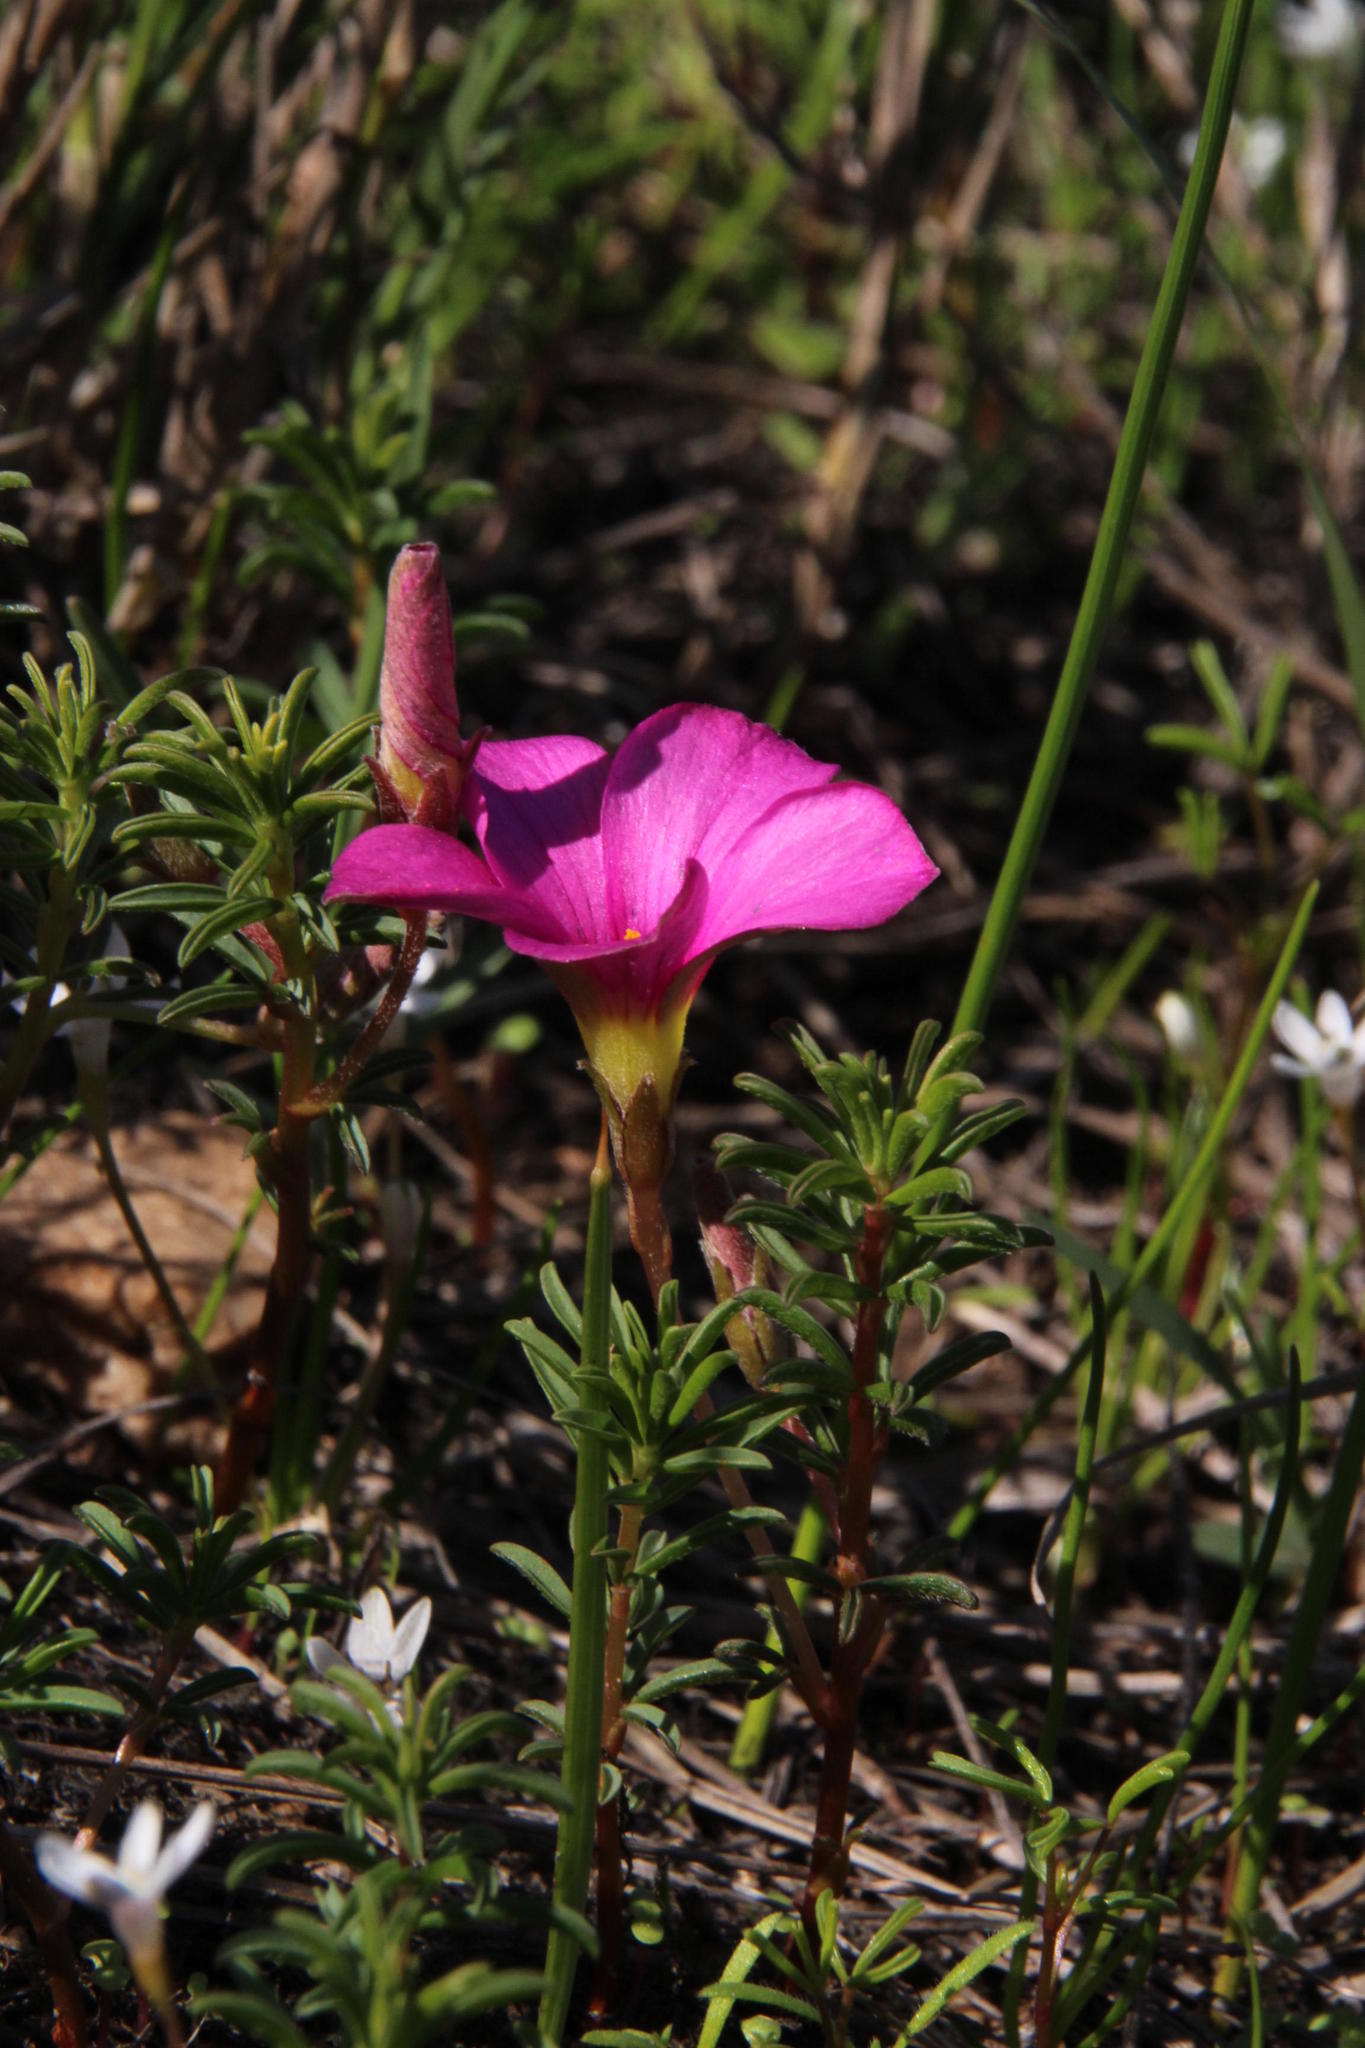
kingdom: Plantae
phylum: Tracheophyta
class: Magnoliopsida
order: Oxalidales
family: Oxalidaceae
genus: Oxalis
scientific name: Oxalis hirta
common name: Tropical woodsorrel
